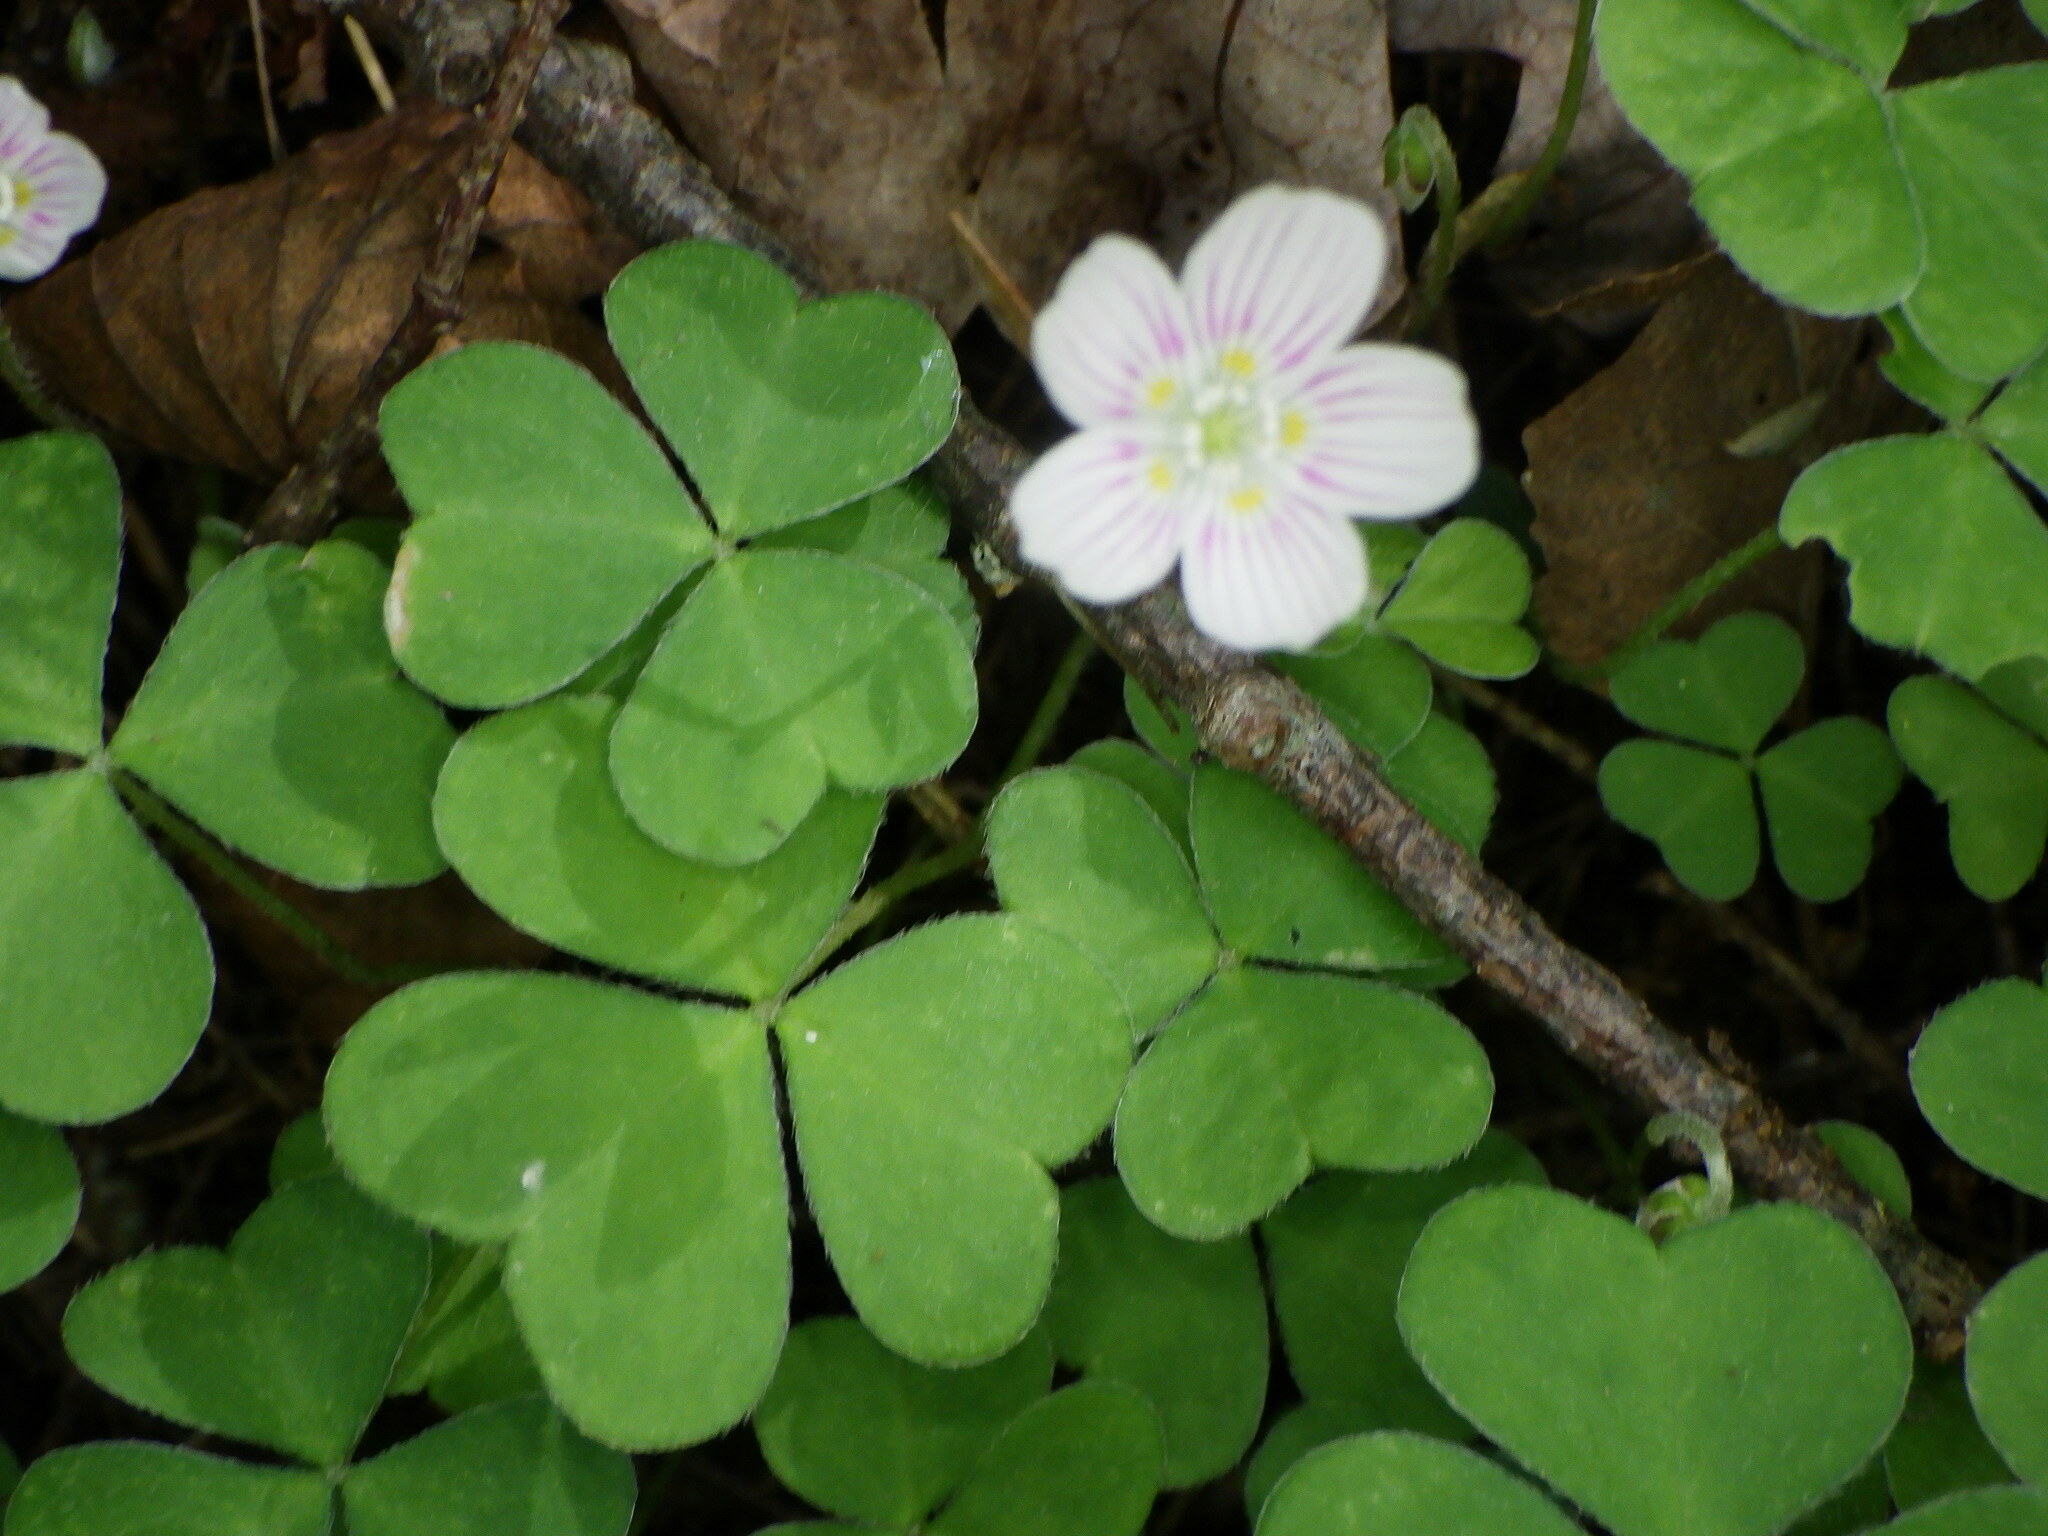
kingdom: Plantae
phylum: Tracheophyta
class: Magnoliopsida
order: Oxalidales
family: Oxalidaceae
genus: Oxalis
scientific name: Oxalis montana
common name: American wood-sorrel
